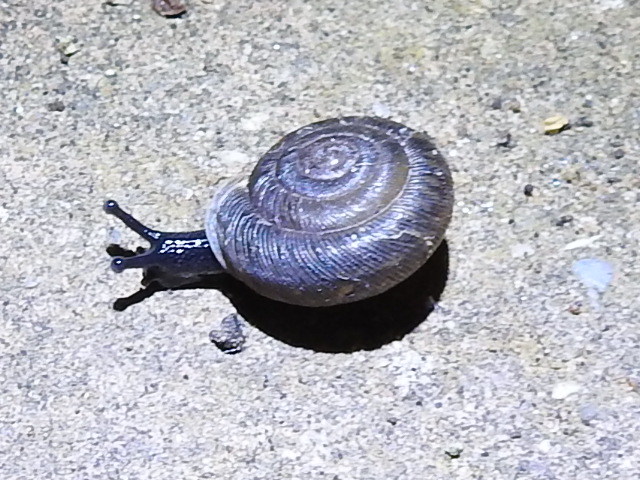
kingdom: Animalia
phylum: Mollusca
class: Gastropoda
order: Stylommatophora
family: Polygyridae
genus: Triodopsis
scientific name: Triodopsis hopetonensis
